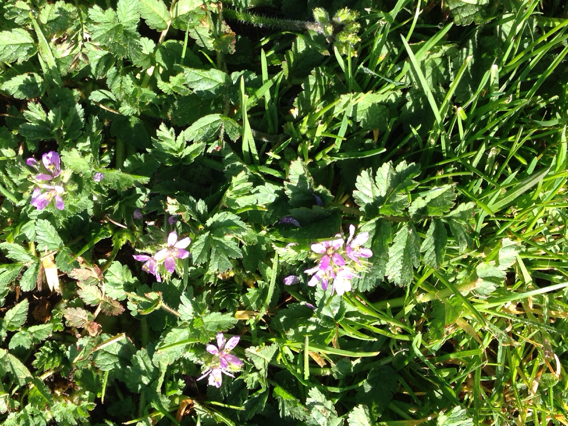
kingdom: Plantae
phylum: Tracheophyta
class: Magnoliopsida
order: Geraniales
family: Geraniaceae
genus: Erodium
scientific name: Erodium moschatum
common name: Musk stork's-bill
